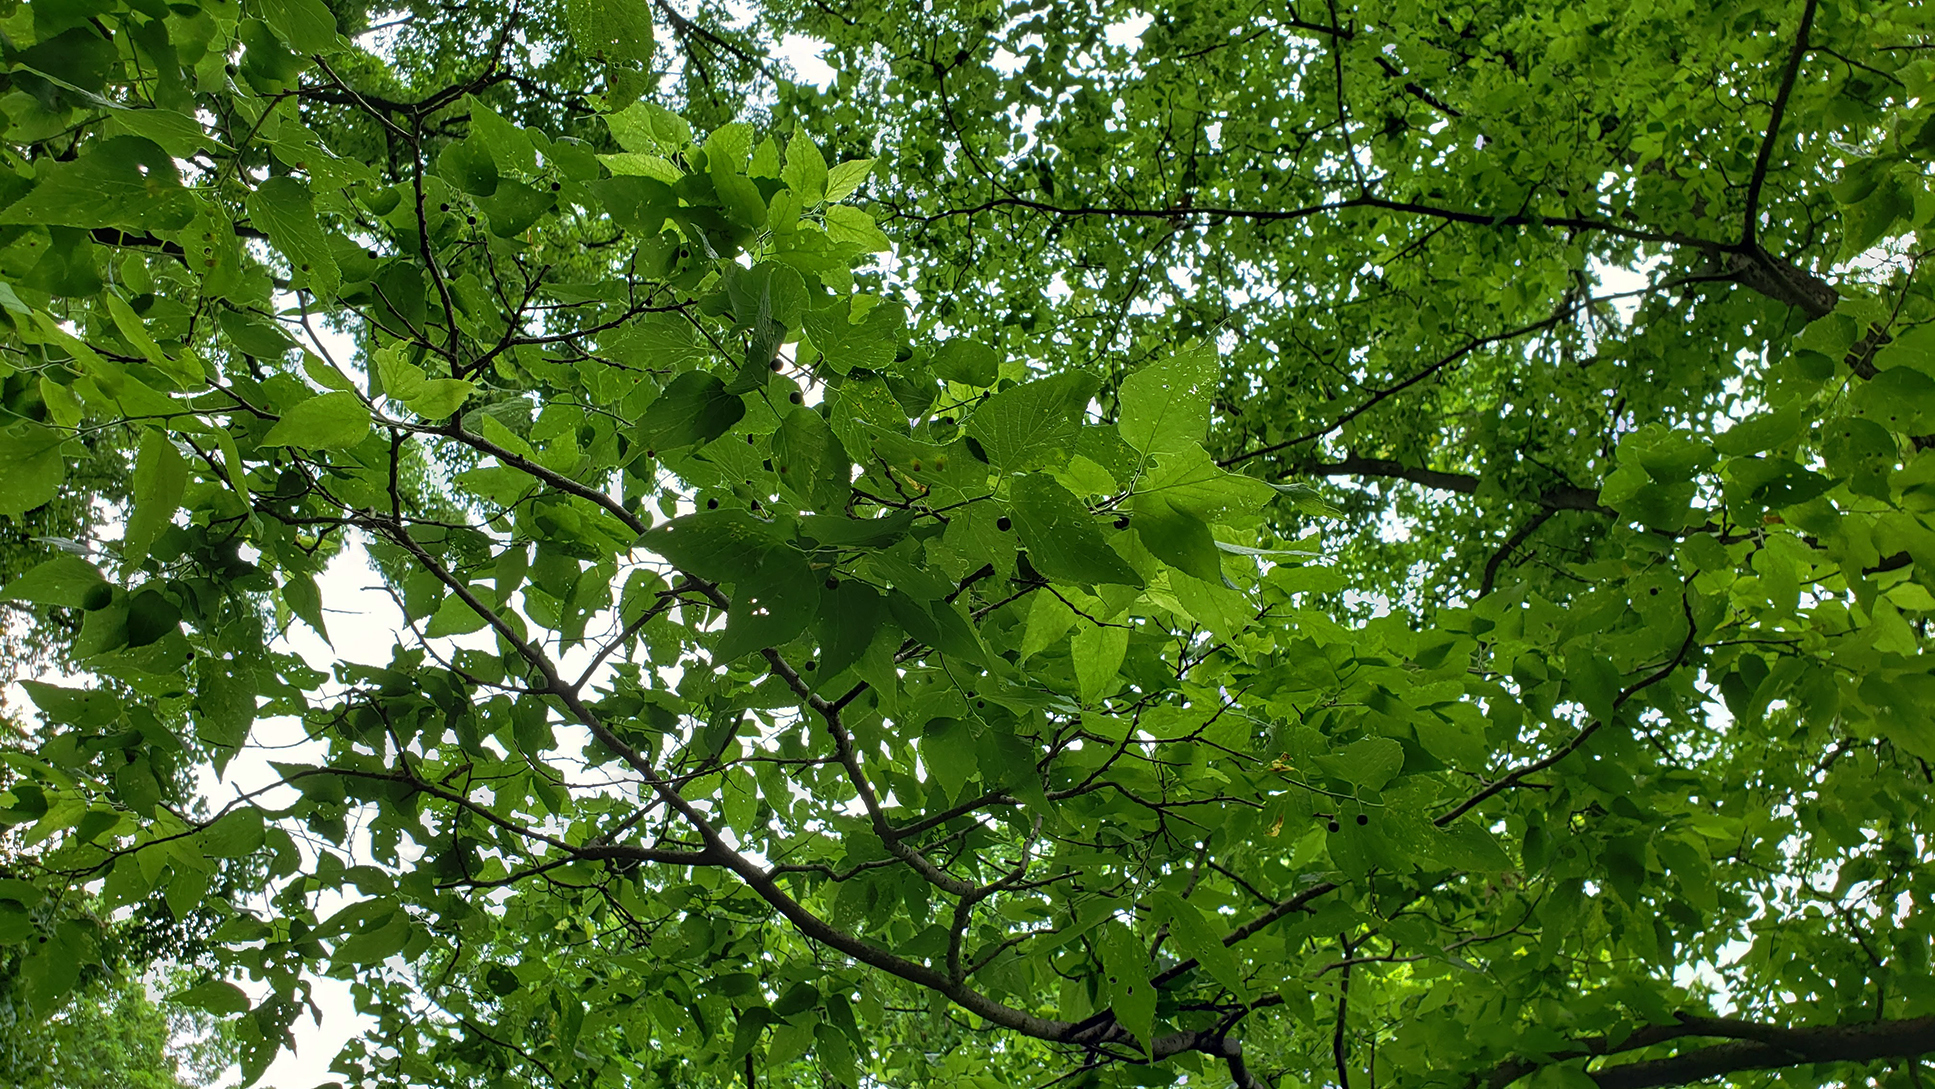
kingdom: Plantae
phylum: Tracheophyta
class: Magnoliopsida
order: Rosales
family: Cannabaceae
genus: Celtis
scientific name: Celtis occidentalis
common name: Common hackberry
